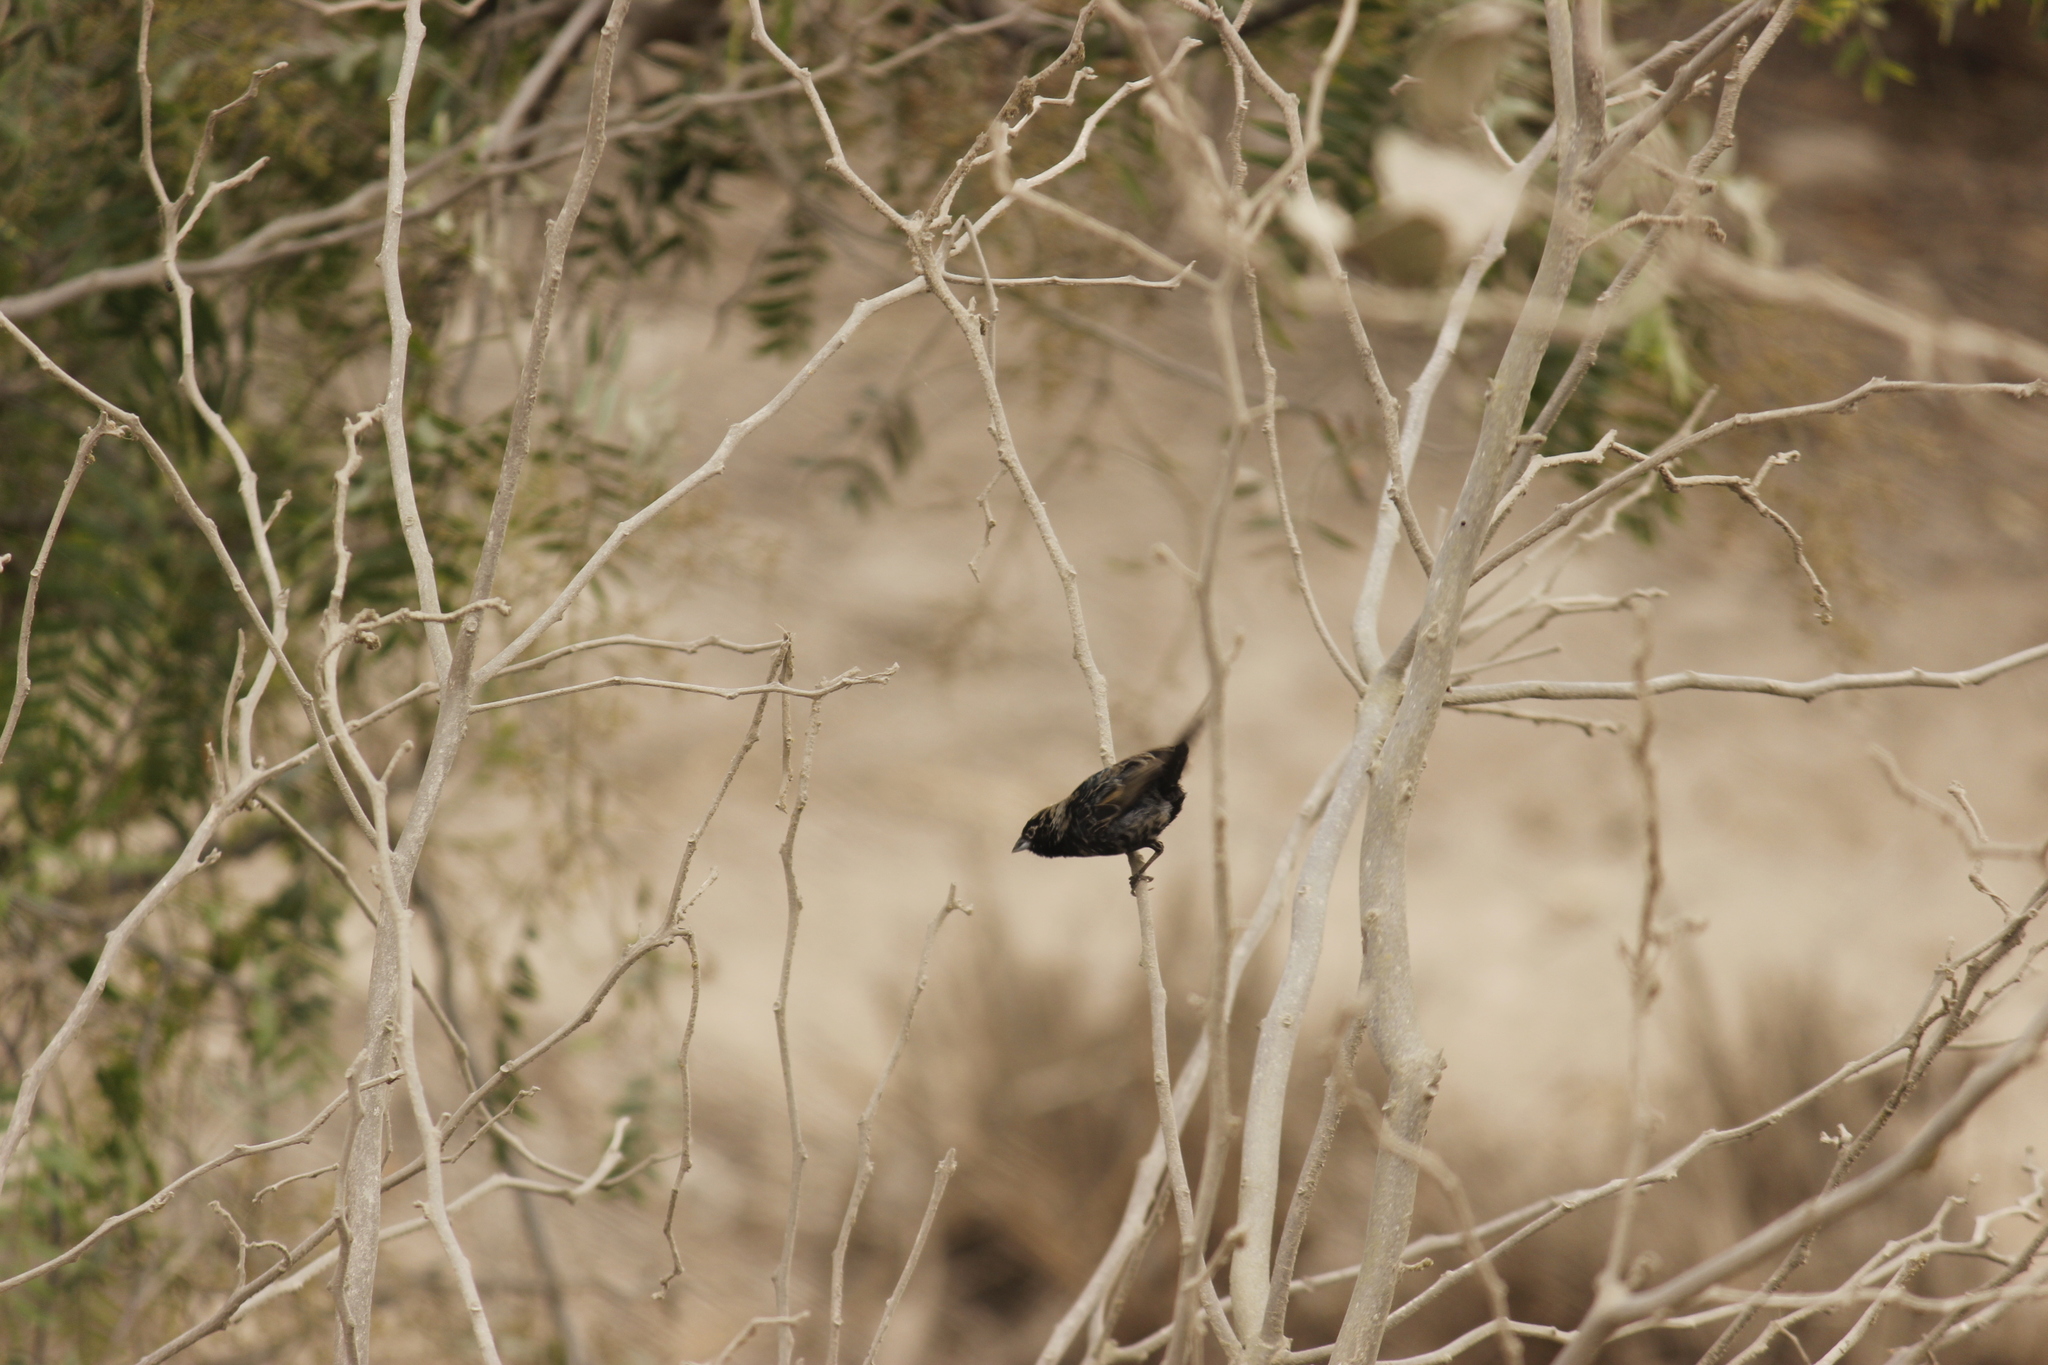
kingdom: Animalia
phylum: Chordata
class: Aves
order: Passeriformes
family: Thraupidae
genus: Volatinia
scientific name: Volatinia jacarina
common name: Blue-black grassquit
